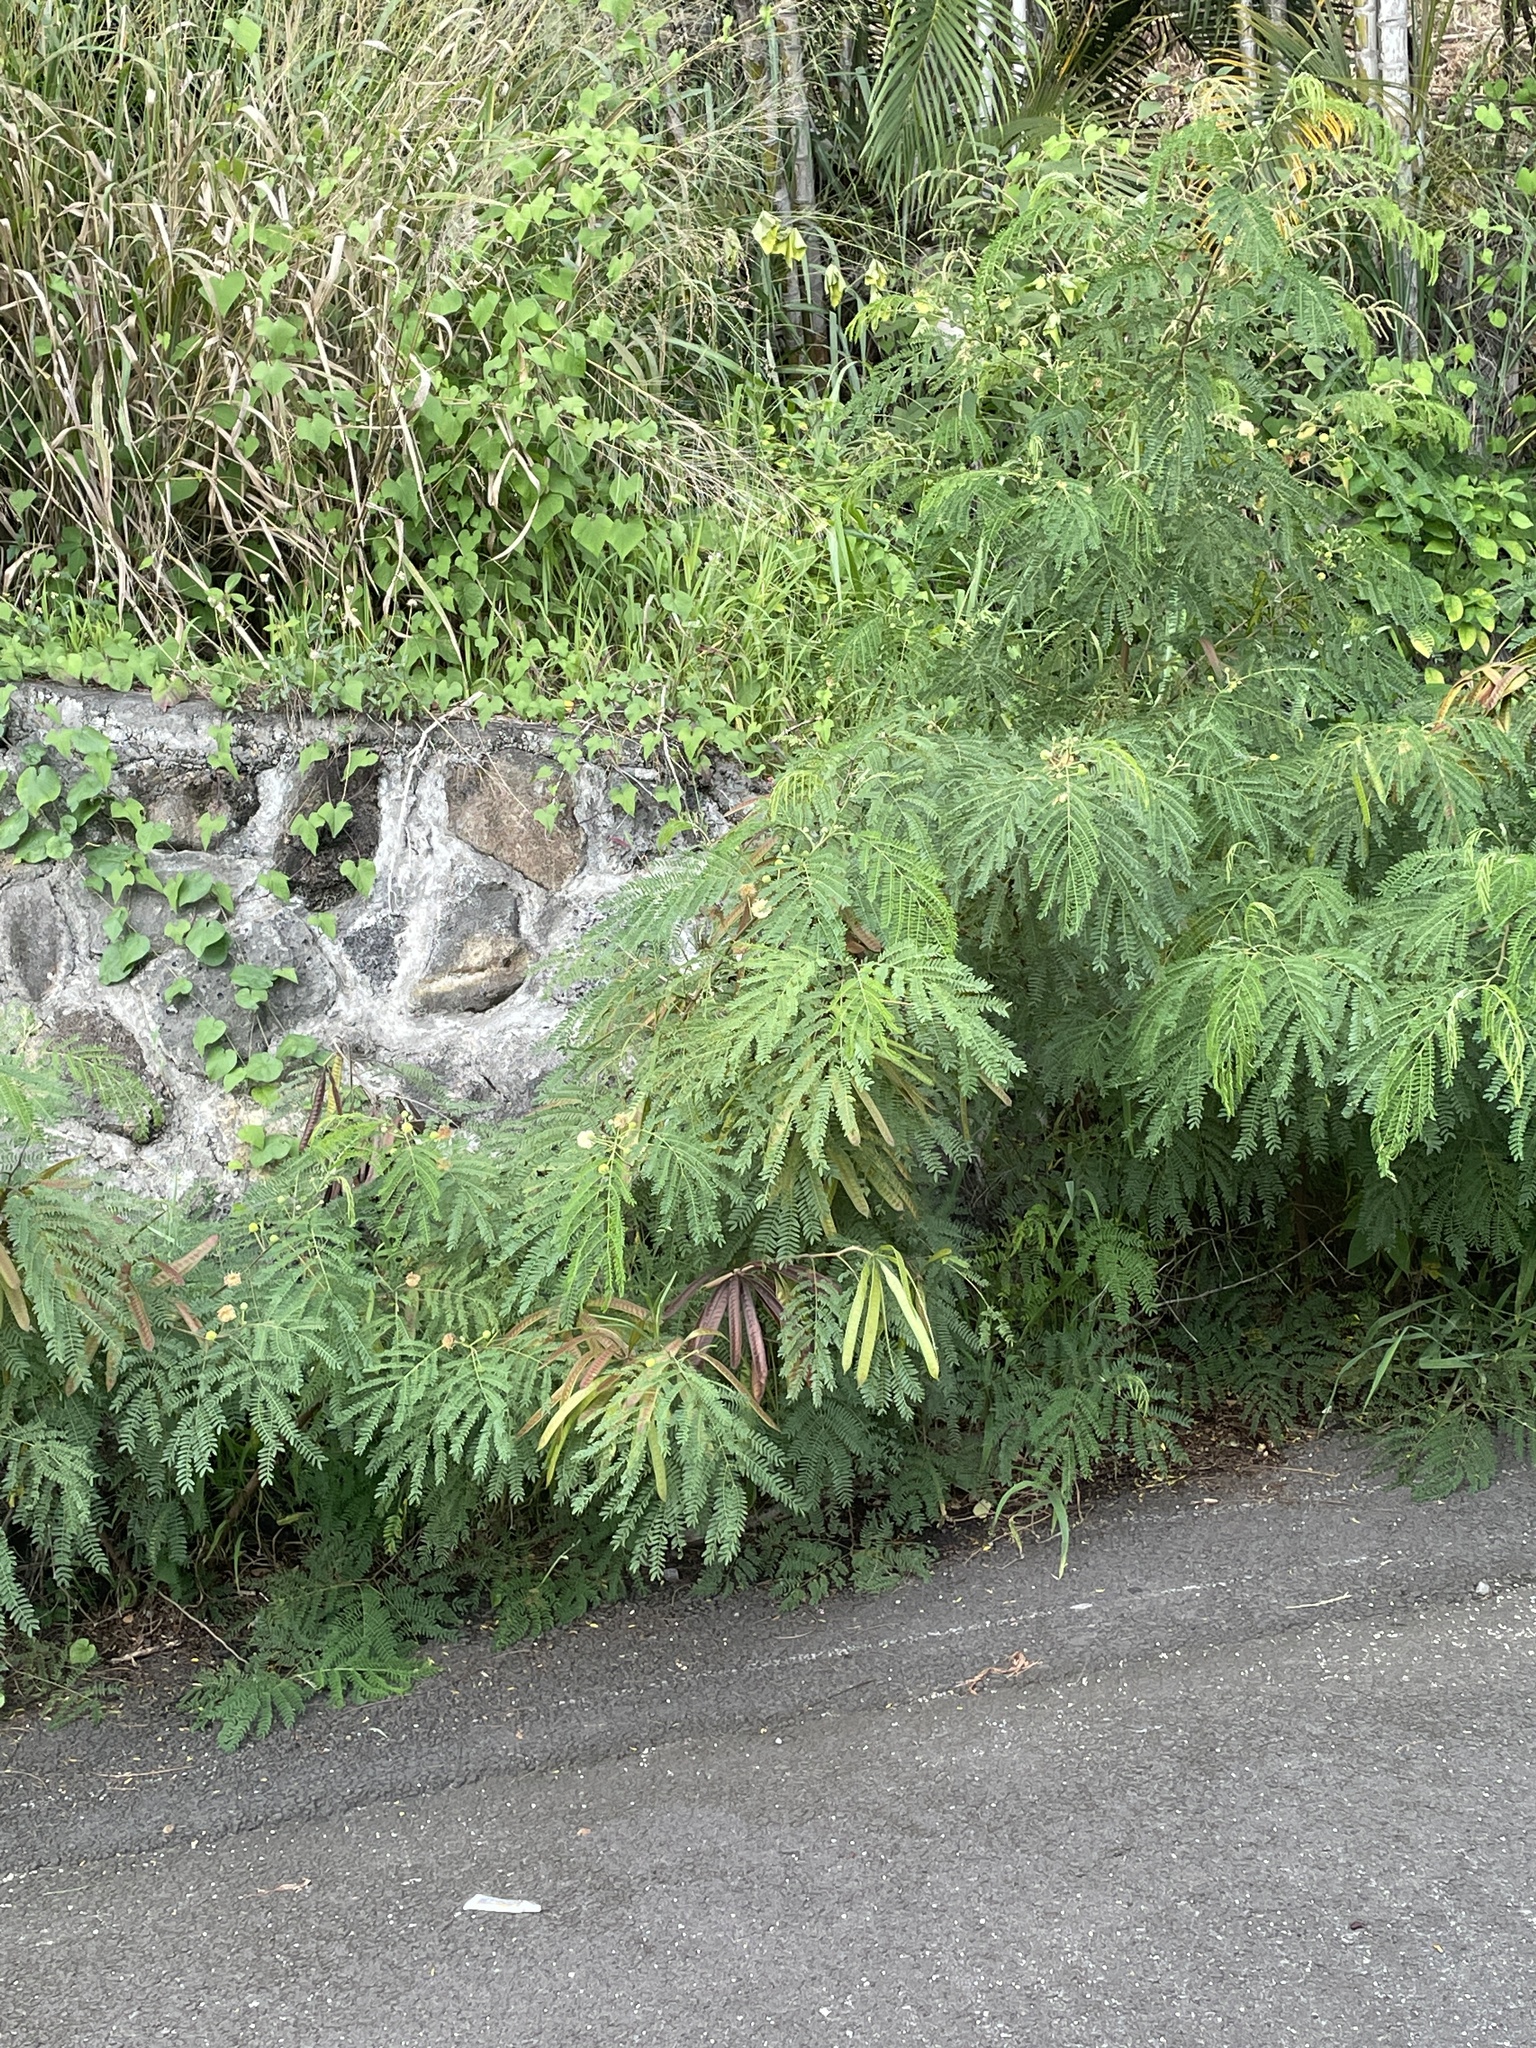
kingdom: Plantae
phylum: Tracheophyta
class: Magnoliopsida
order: Fabales
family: Fabaceae
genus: Leucaena
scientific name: Leucaena leucocephala
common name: White leadtree
